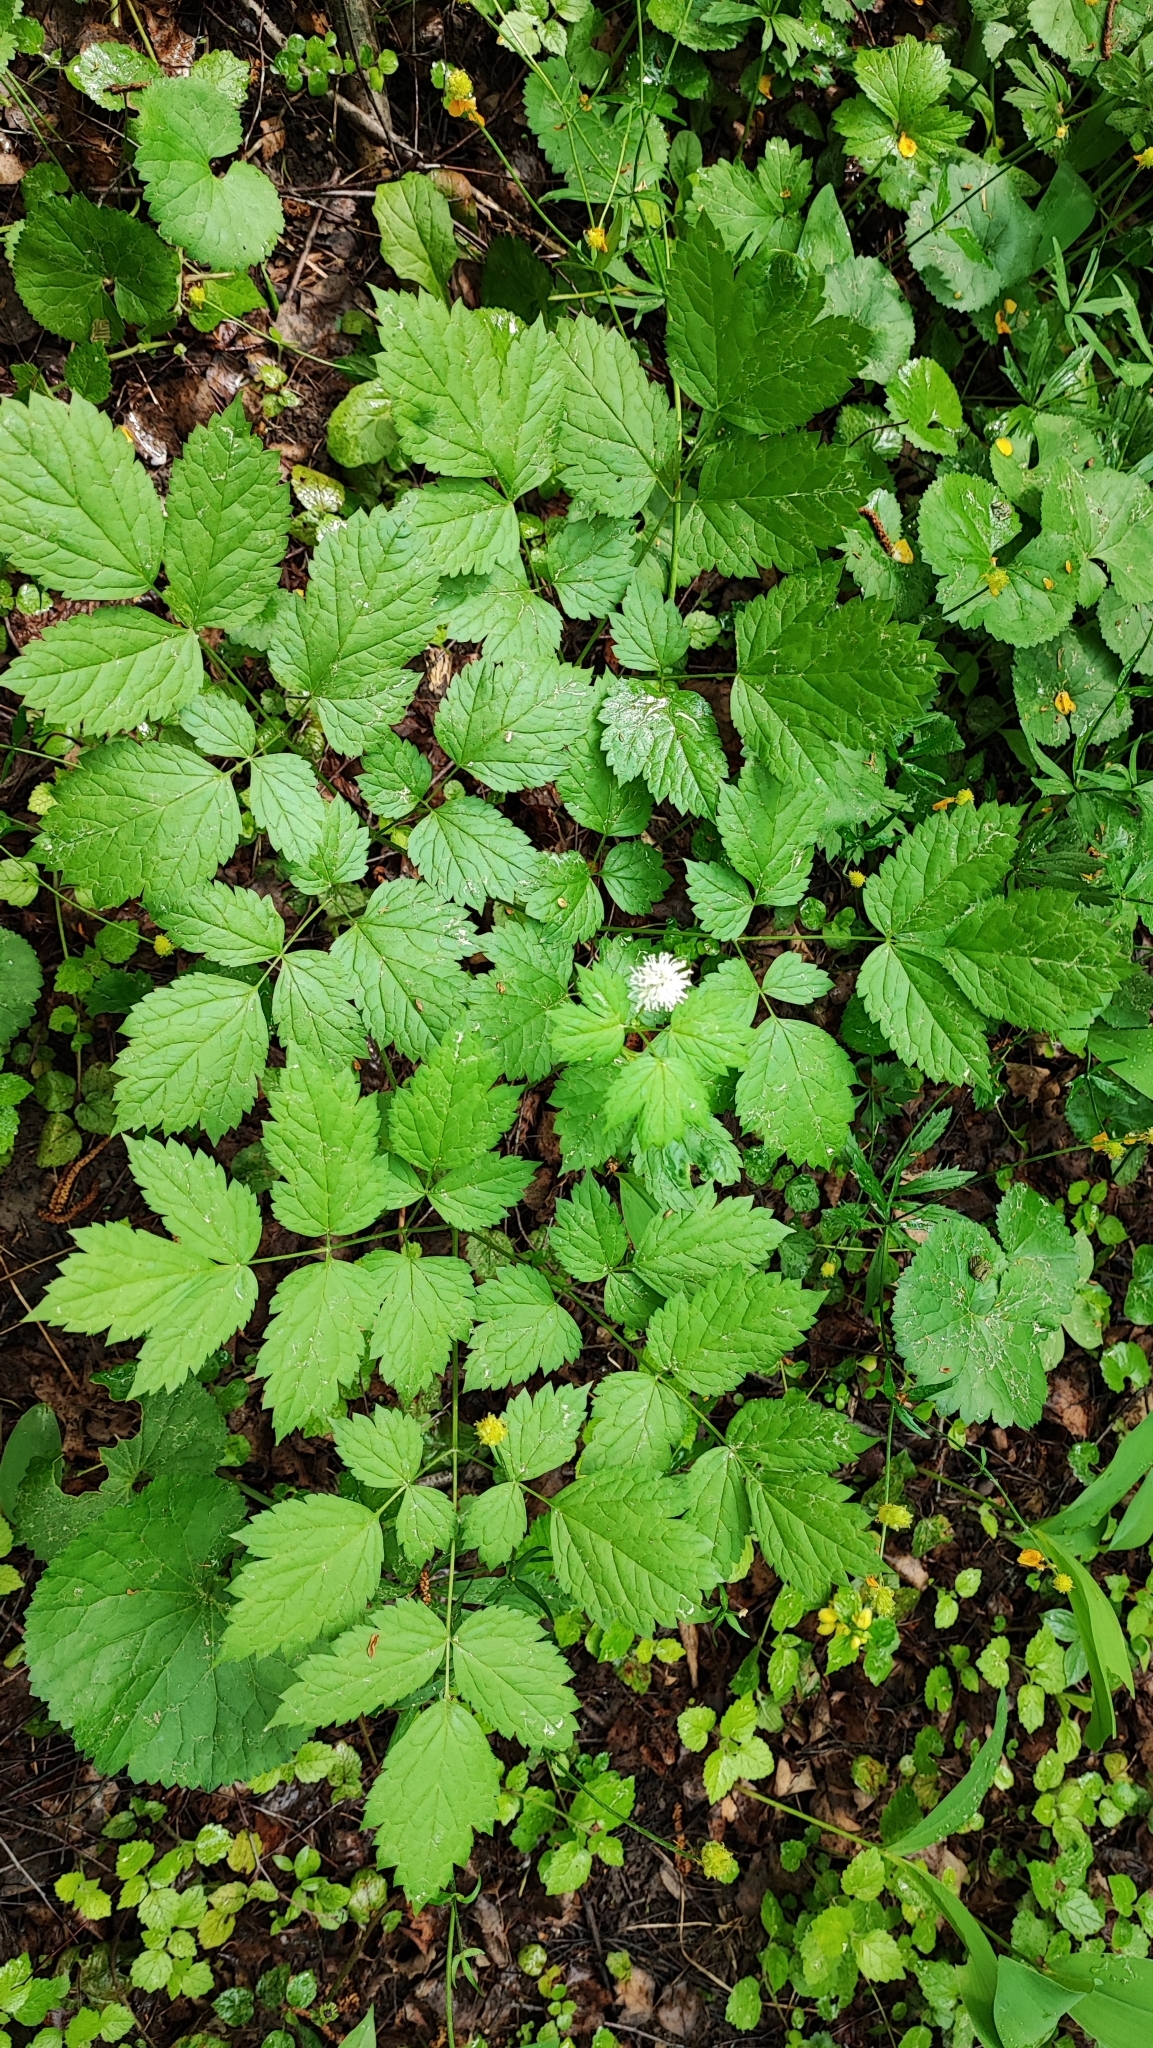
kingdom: Plantae
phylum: Tracheophyta
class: Magnoliopsida
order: Ranunculales
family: Ranunculaceae
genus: Actaea
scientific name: Actaea spicata
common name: Baneberry
